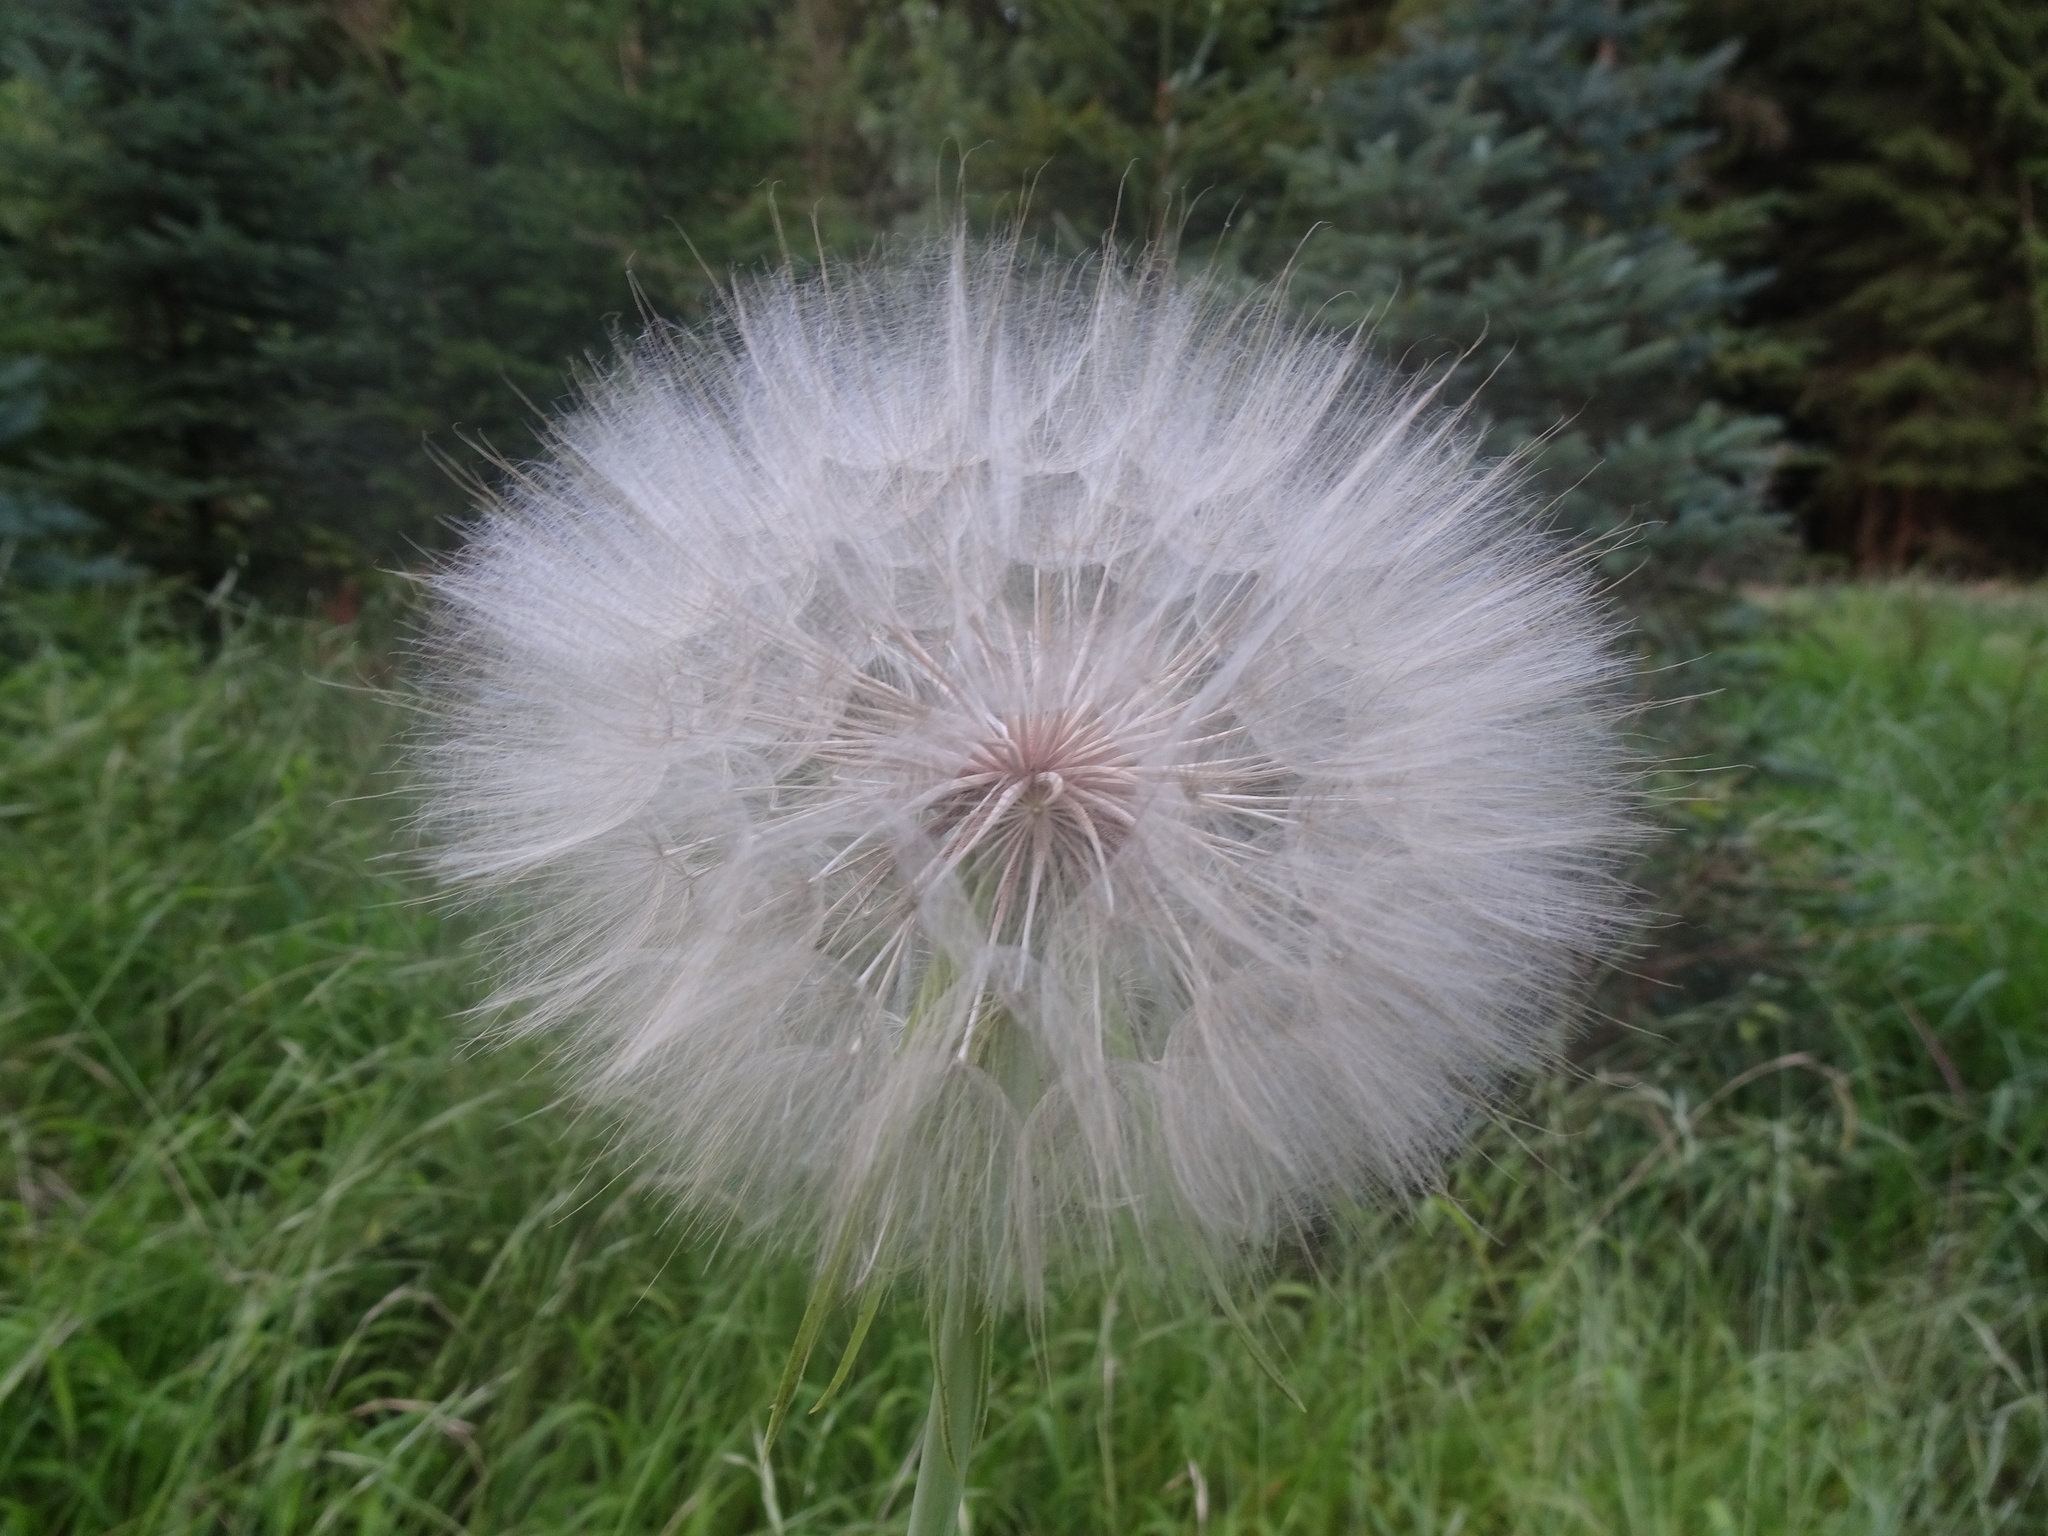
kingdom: Plantae
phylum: Tracheophyta
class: Magnoliopsida
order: Asterales
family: Asteraceae
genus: Tragopogon
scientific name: Tragopogon dubius
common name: Yellow salsify
